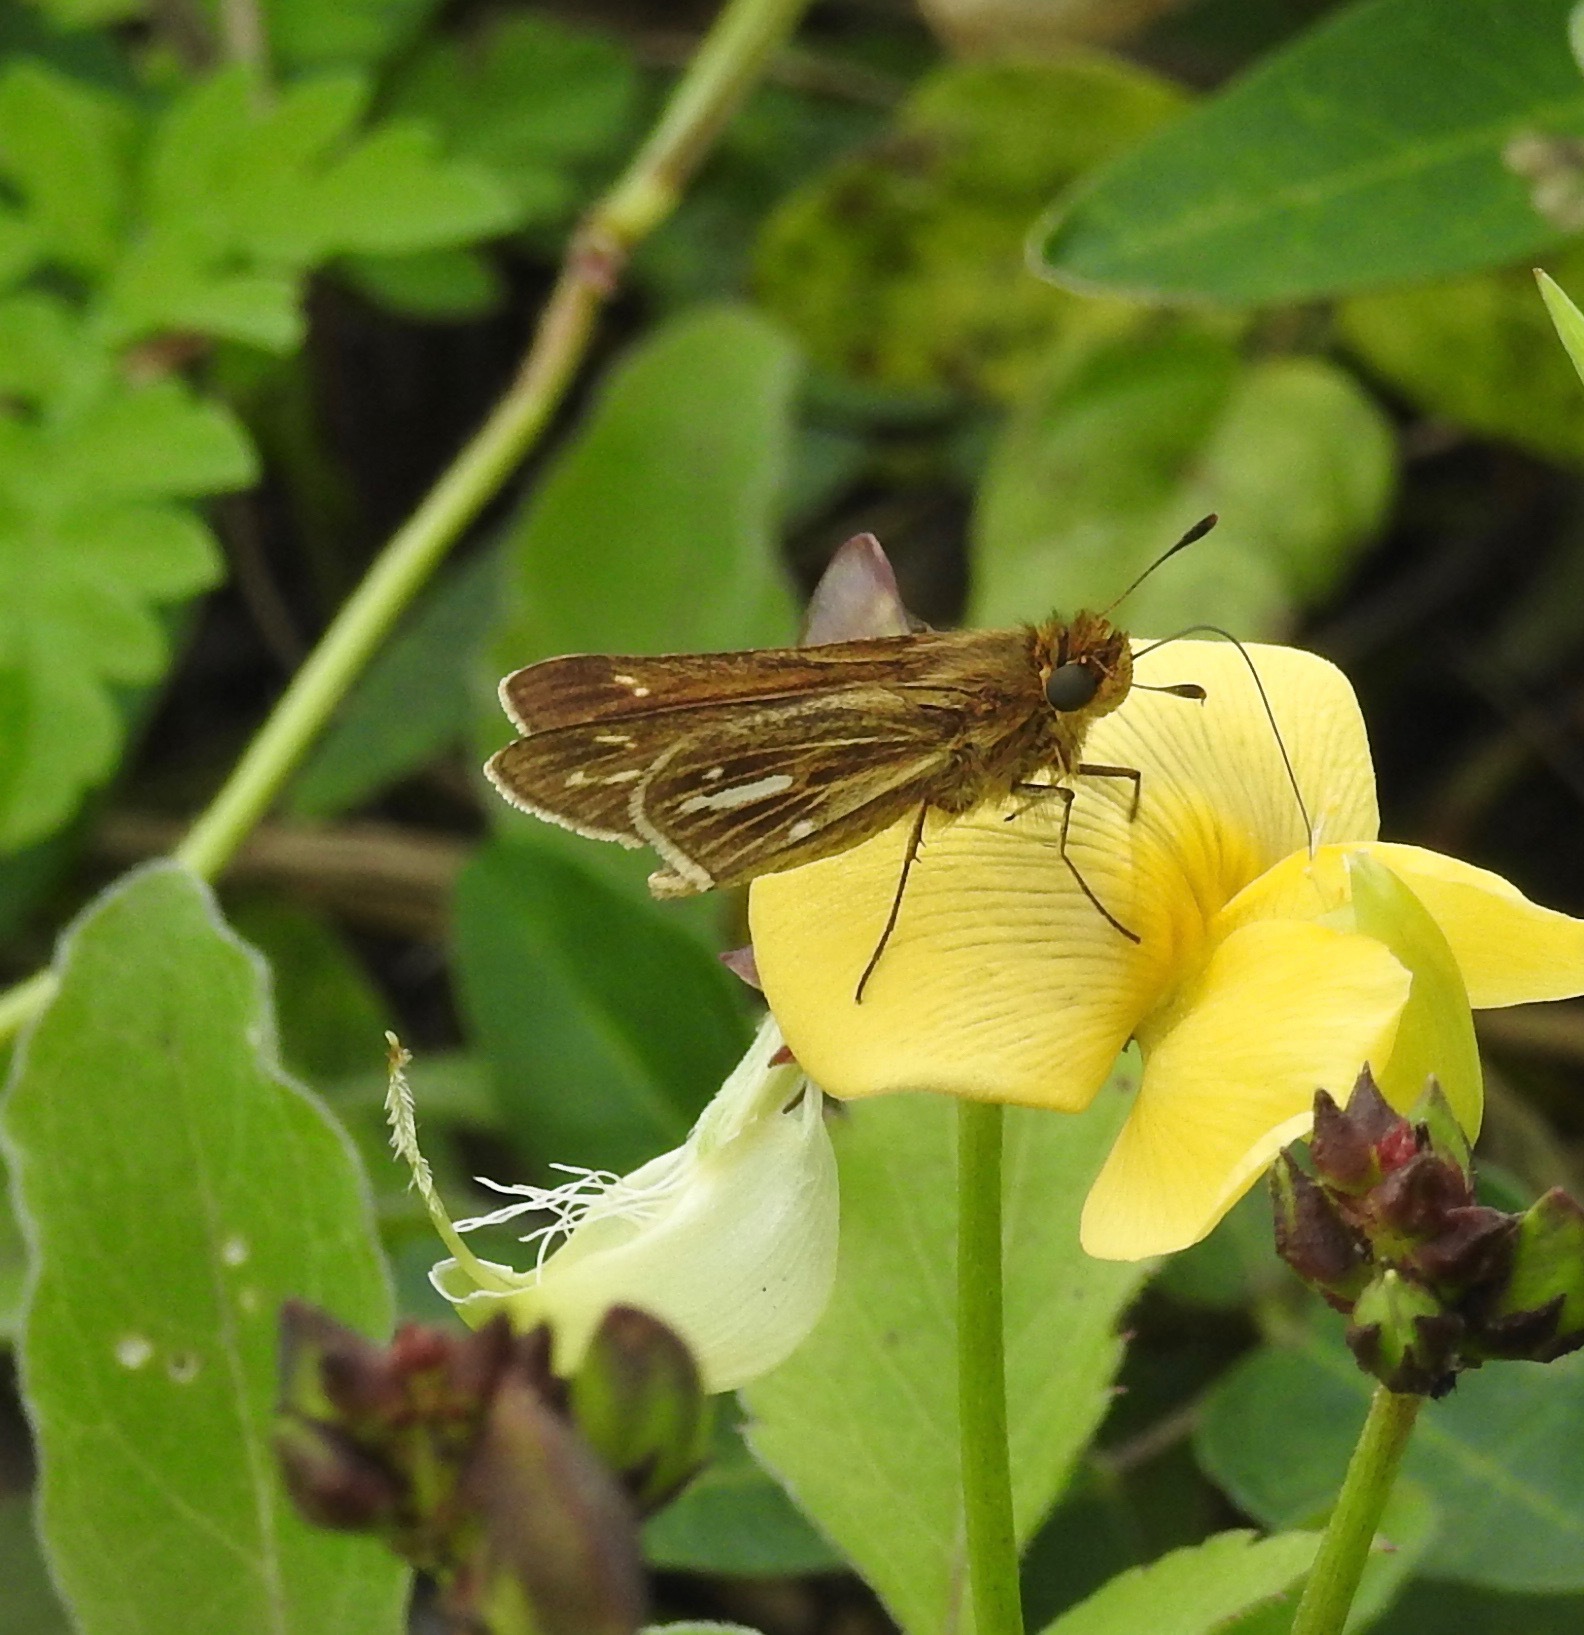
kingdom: Animalia
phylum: Arthropoda
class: Insecta
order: Lepidoptera
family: Hesperiidae
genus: Panoquina
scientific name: Panoquina panoquin
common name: Salt marsh skipper
